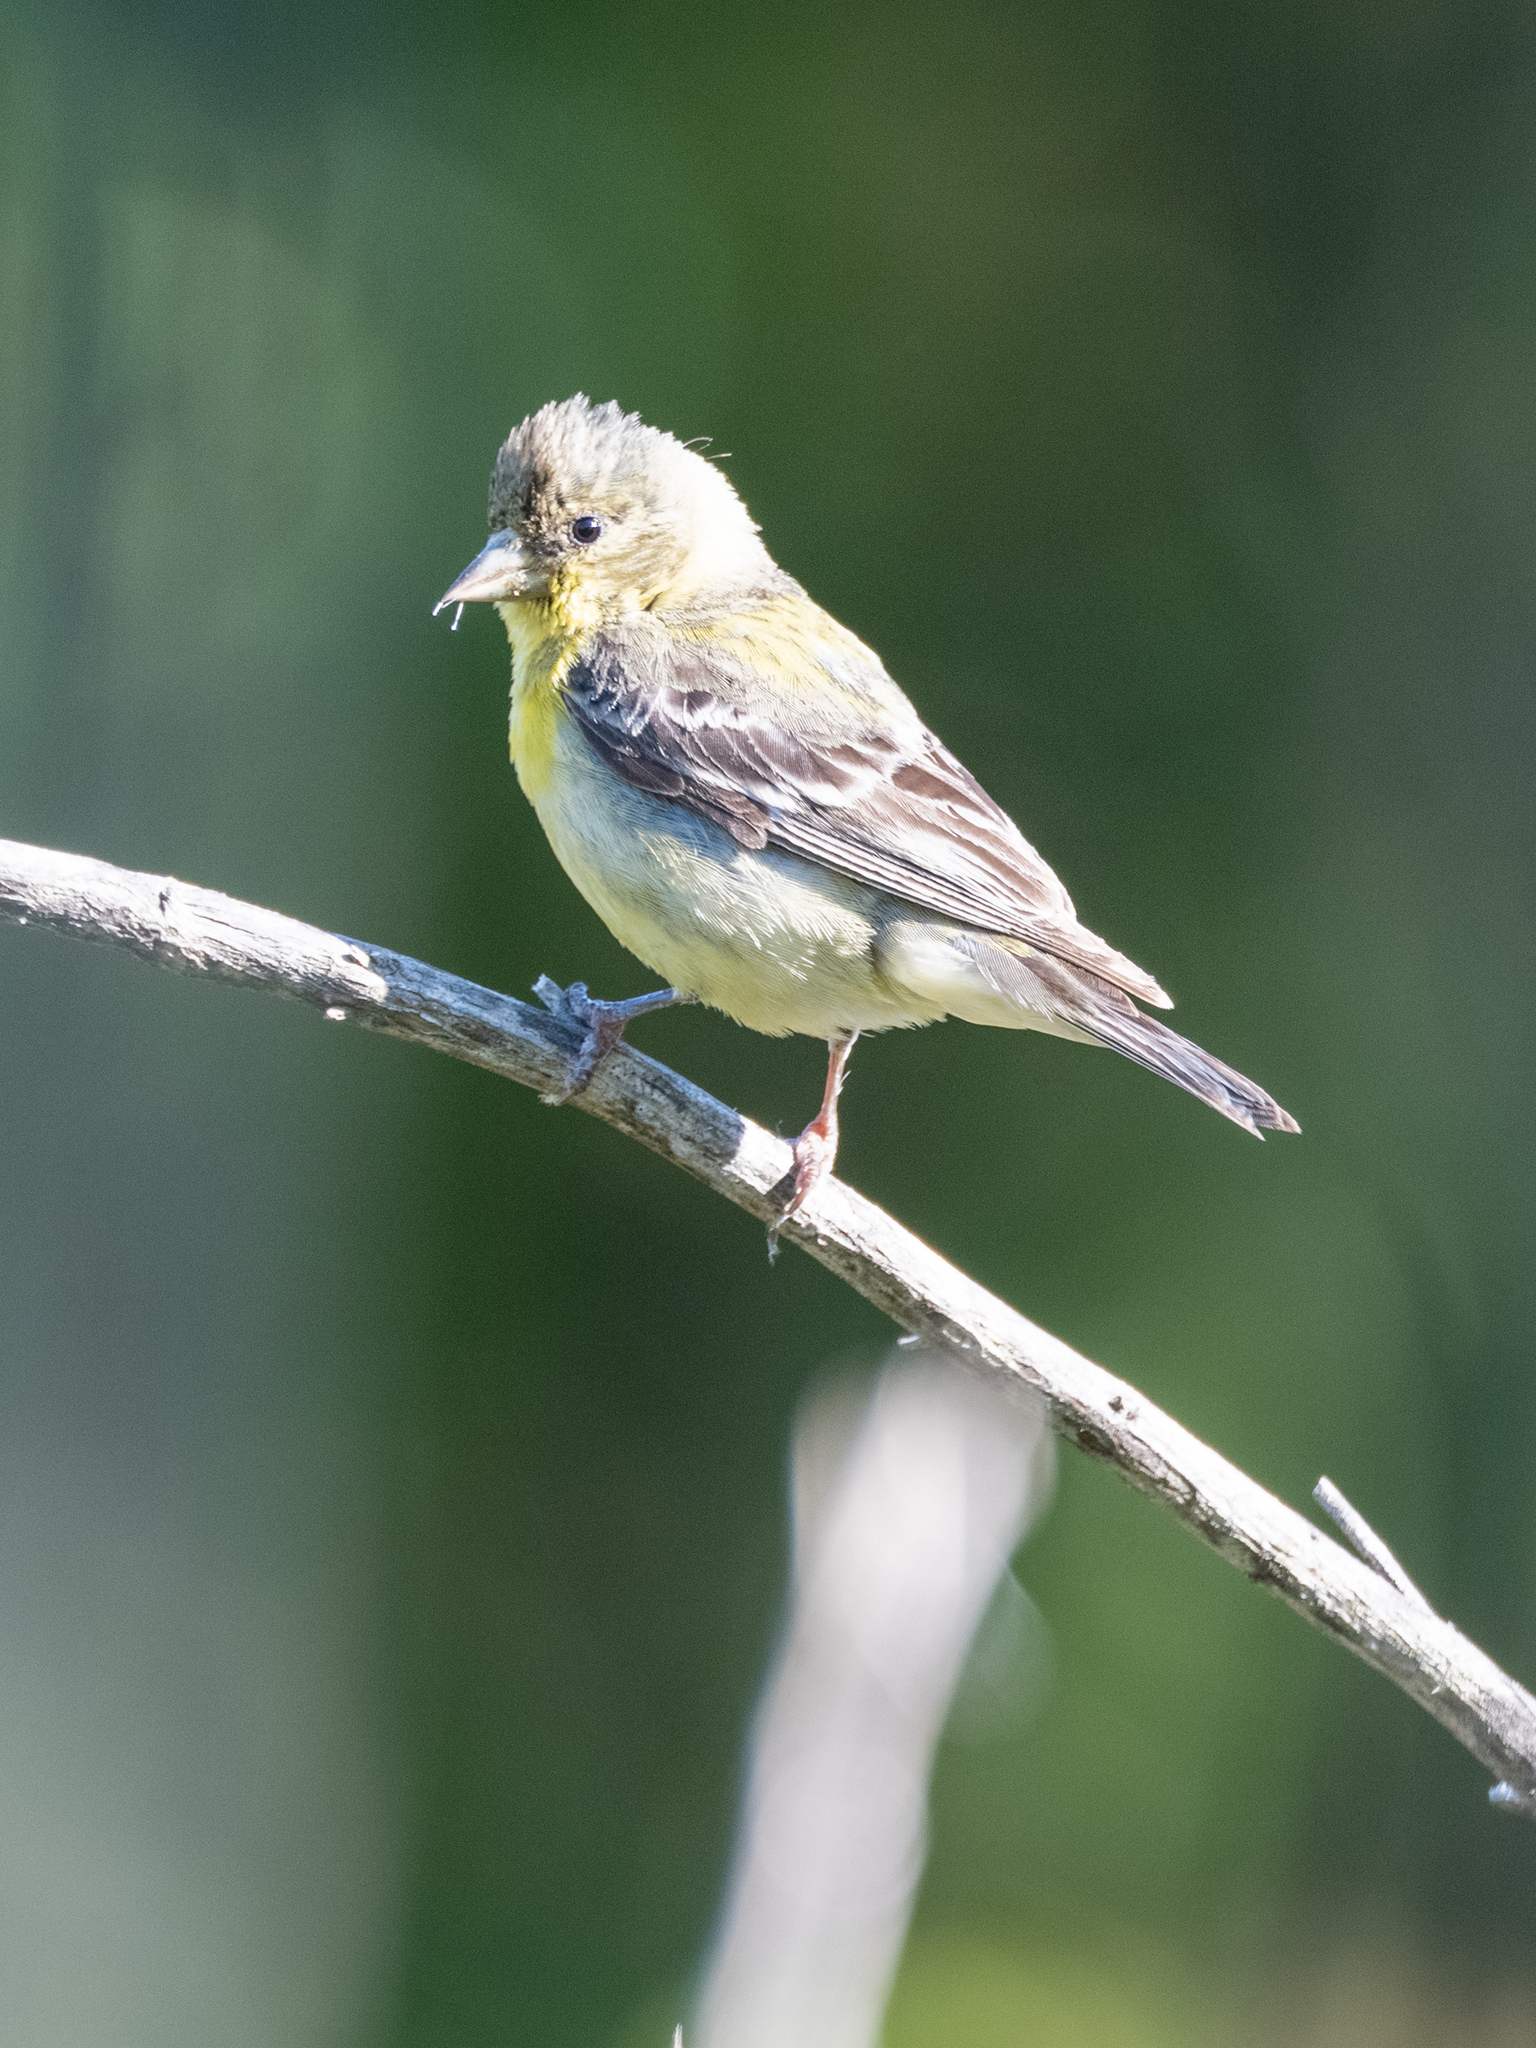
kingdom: Animalia
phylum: Chordata
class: Aves
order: Passeriformes
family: Fringillidae
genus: Spinus
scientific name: Spinus psaltria
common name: Lesser goldfinch
